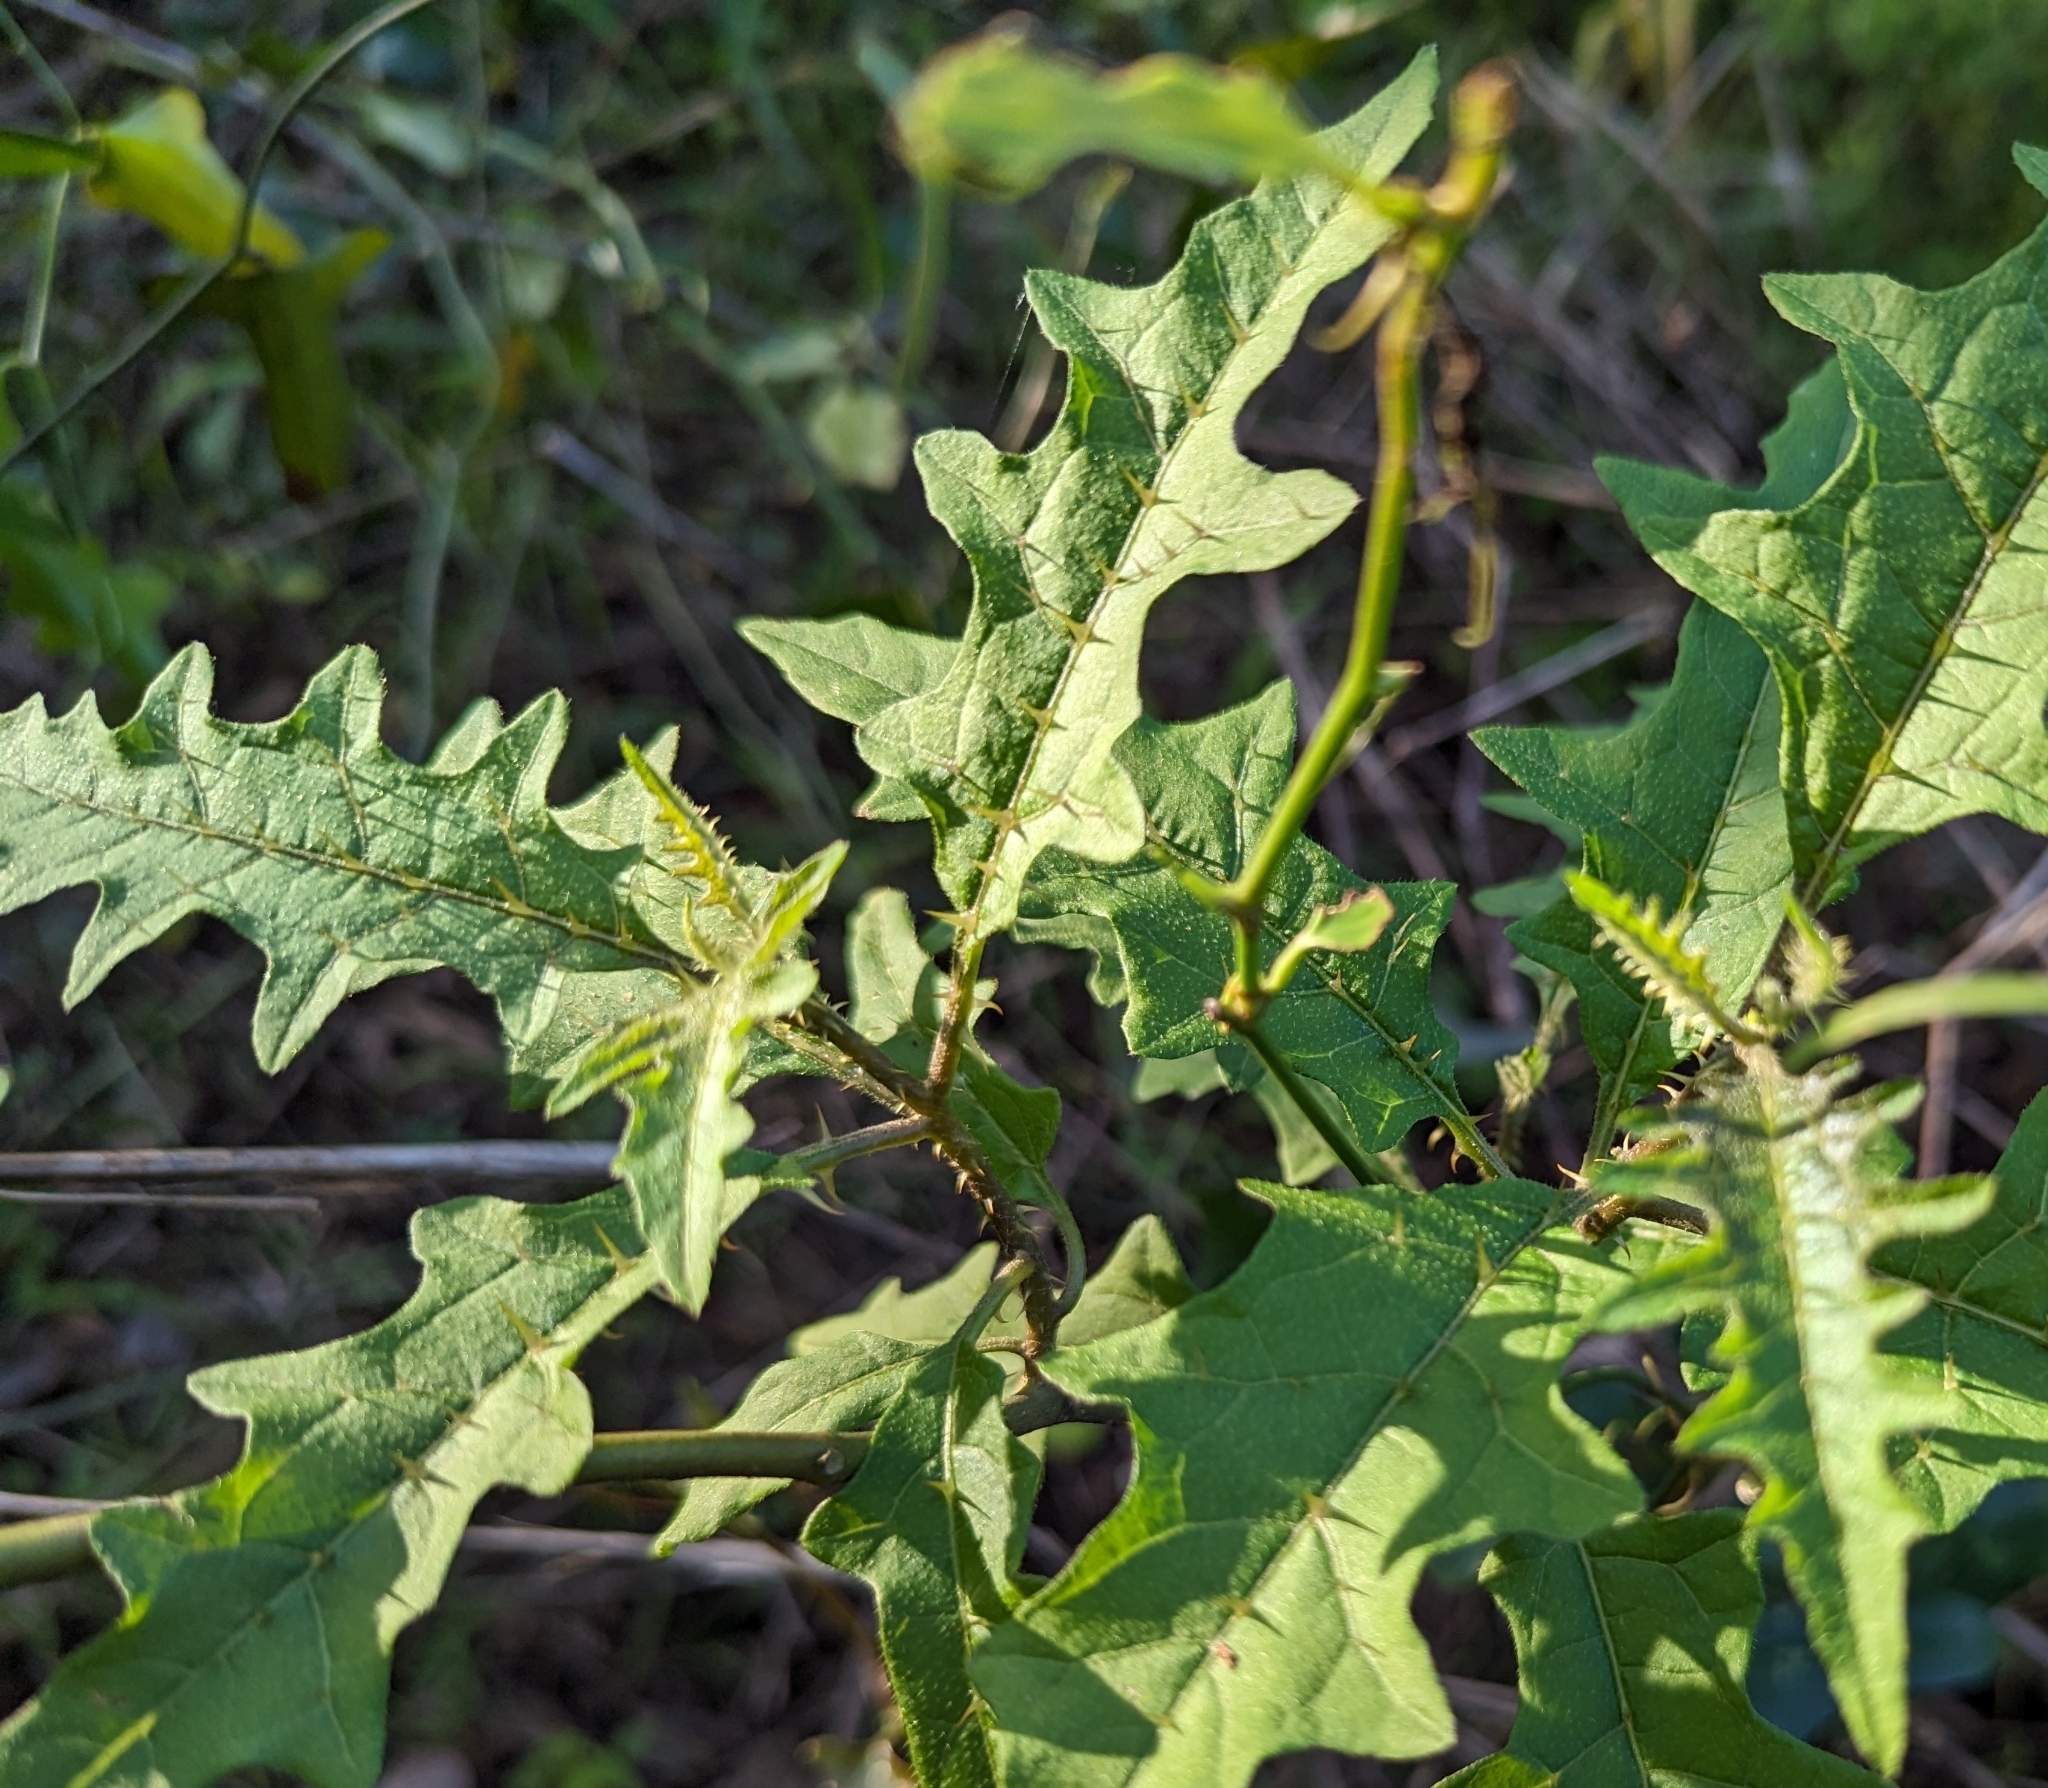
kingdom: Plantae
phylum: Tracheophyta
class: Magnoliopsida
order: Solanales
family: Solanaceae
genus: Solanum
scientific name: Solanum tampicense
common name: Scrambling nightshade
